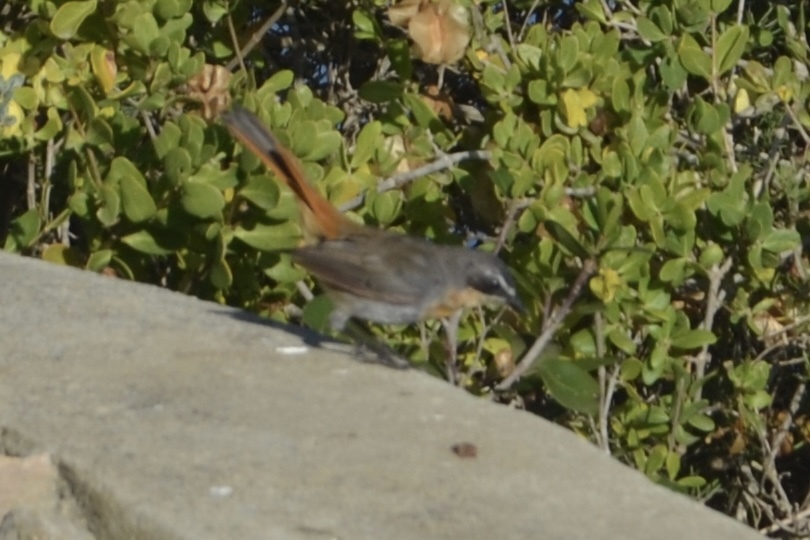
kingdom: Animalia
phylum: Chordata
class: Aves
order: Passeriformes
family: Muscicapidae
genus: Cossypha
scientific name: Cossypha caffra
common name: Cape robin-chat
